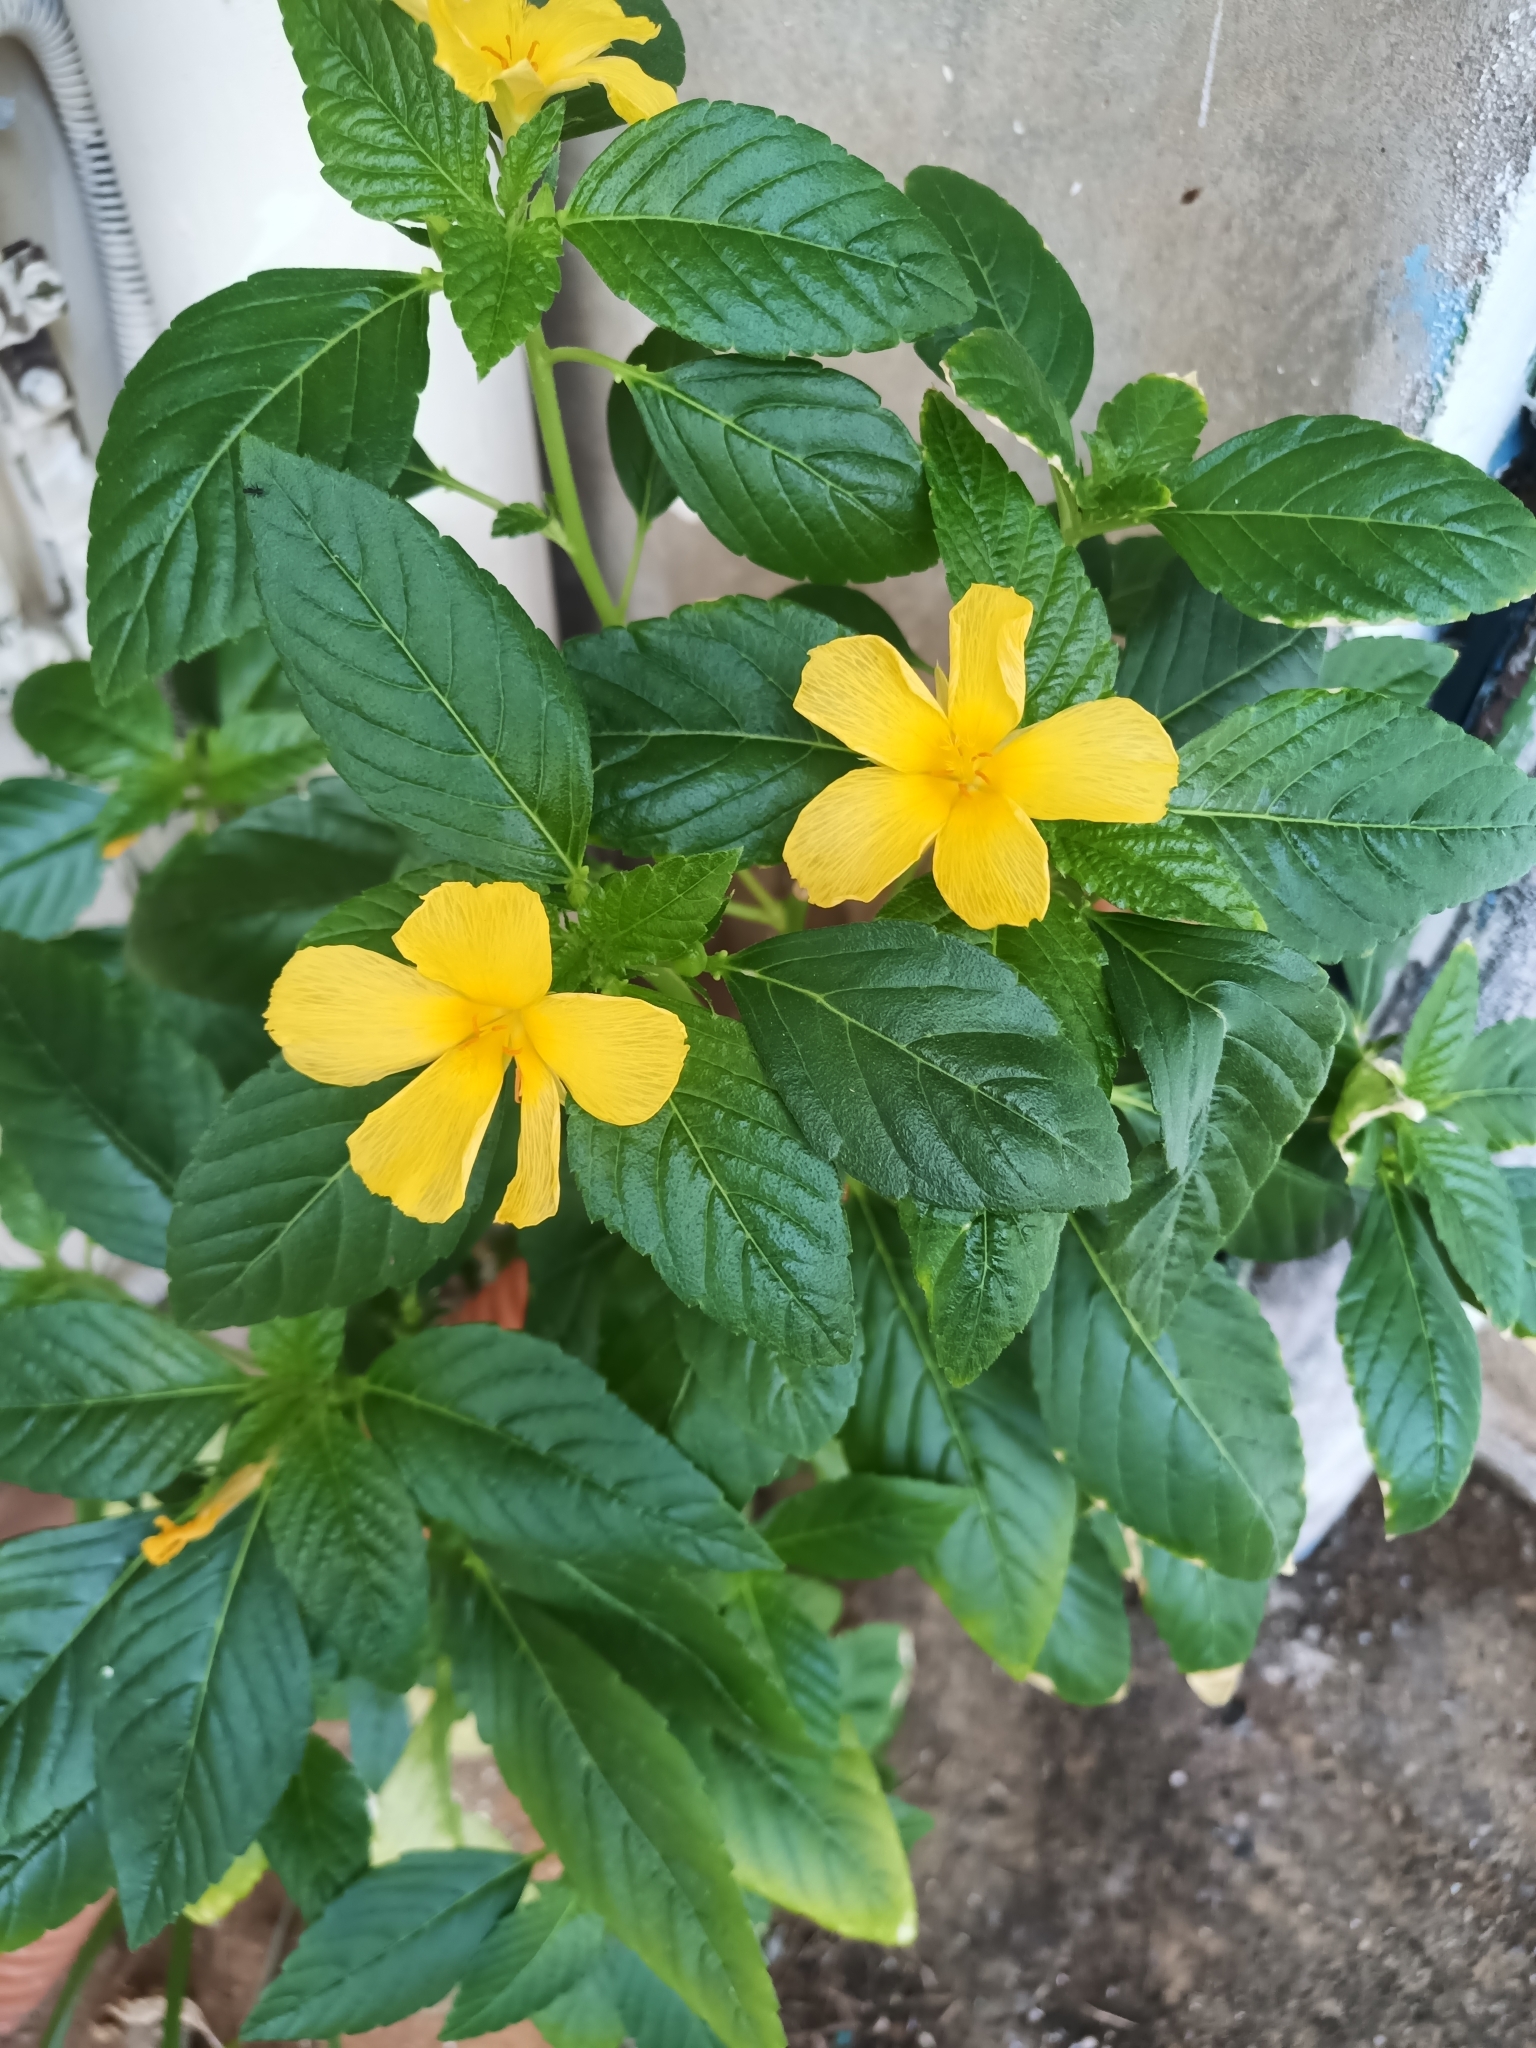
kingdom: Plantae
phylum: Tracheophyta
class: Magnoliopsida
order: Malpighiales
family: Turneraceae
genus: Turnera
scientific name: Turnera ulmifolia
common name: Ramgoat dashalong
